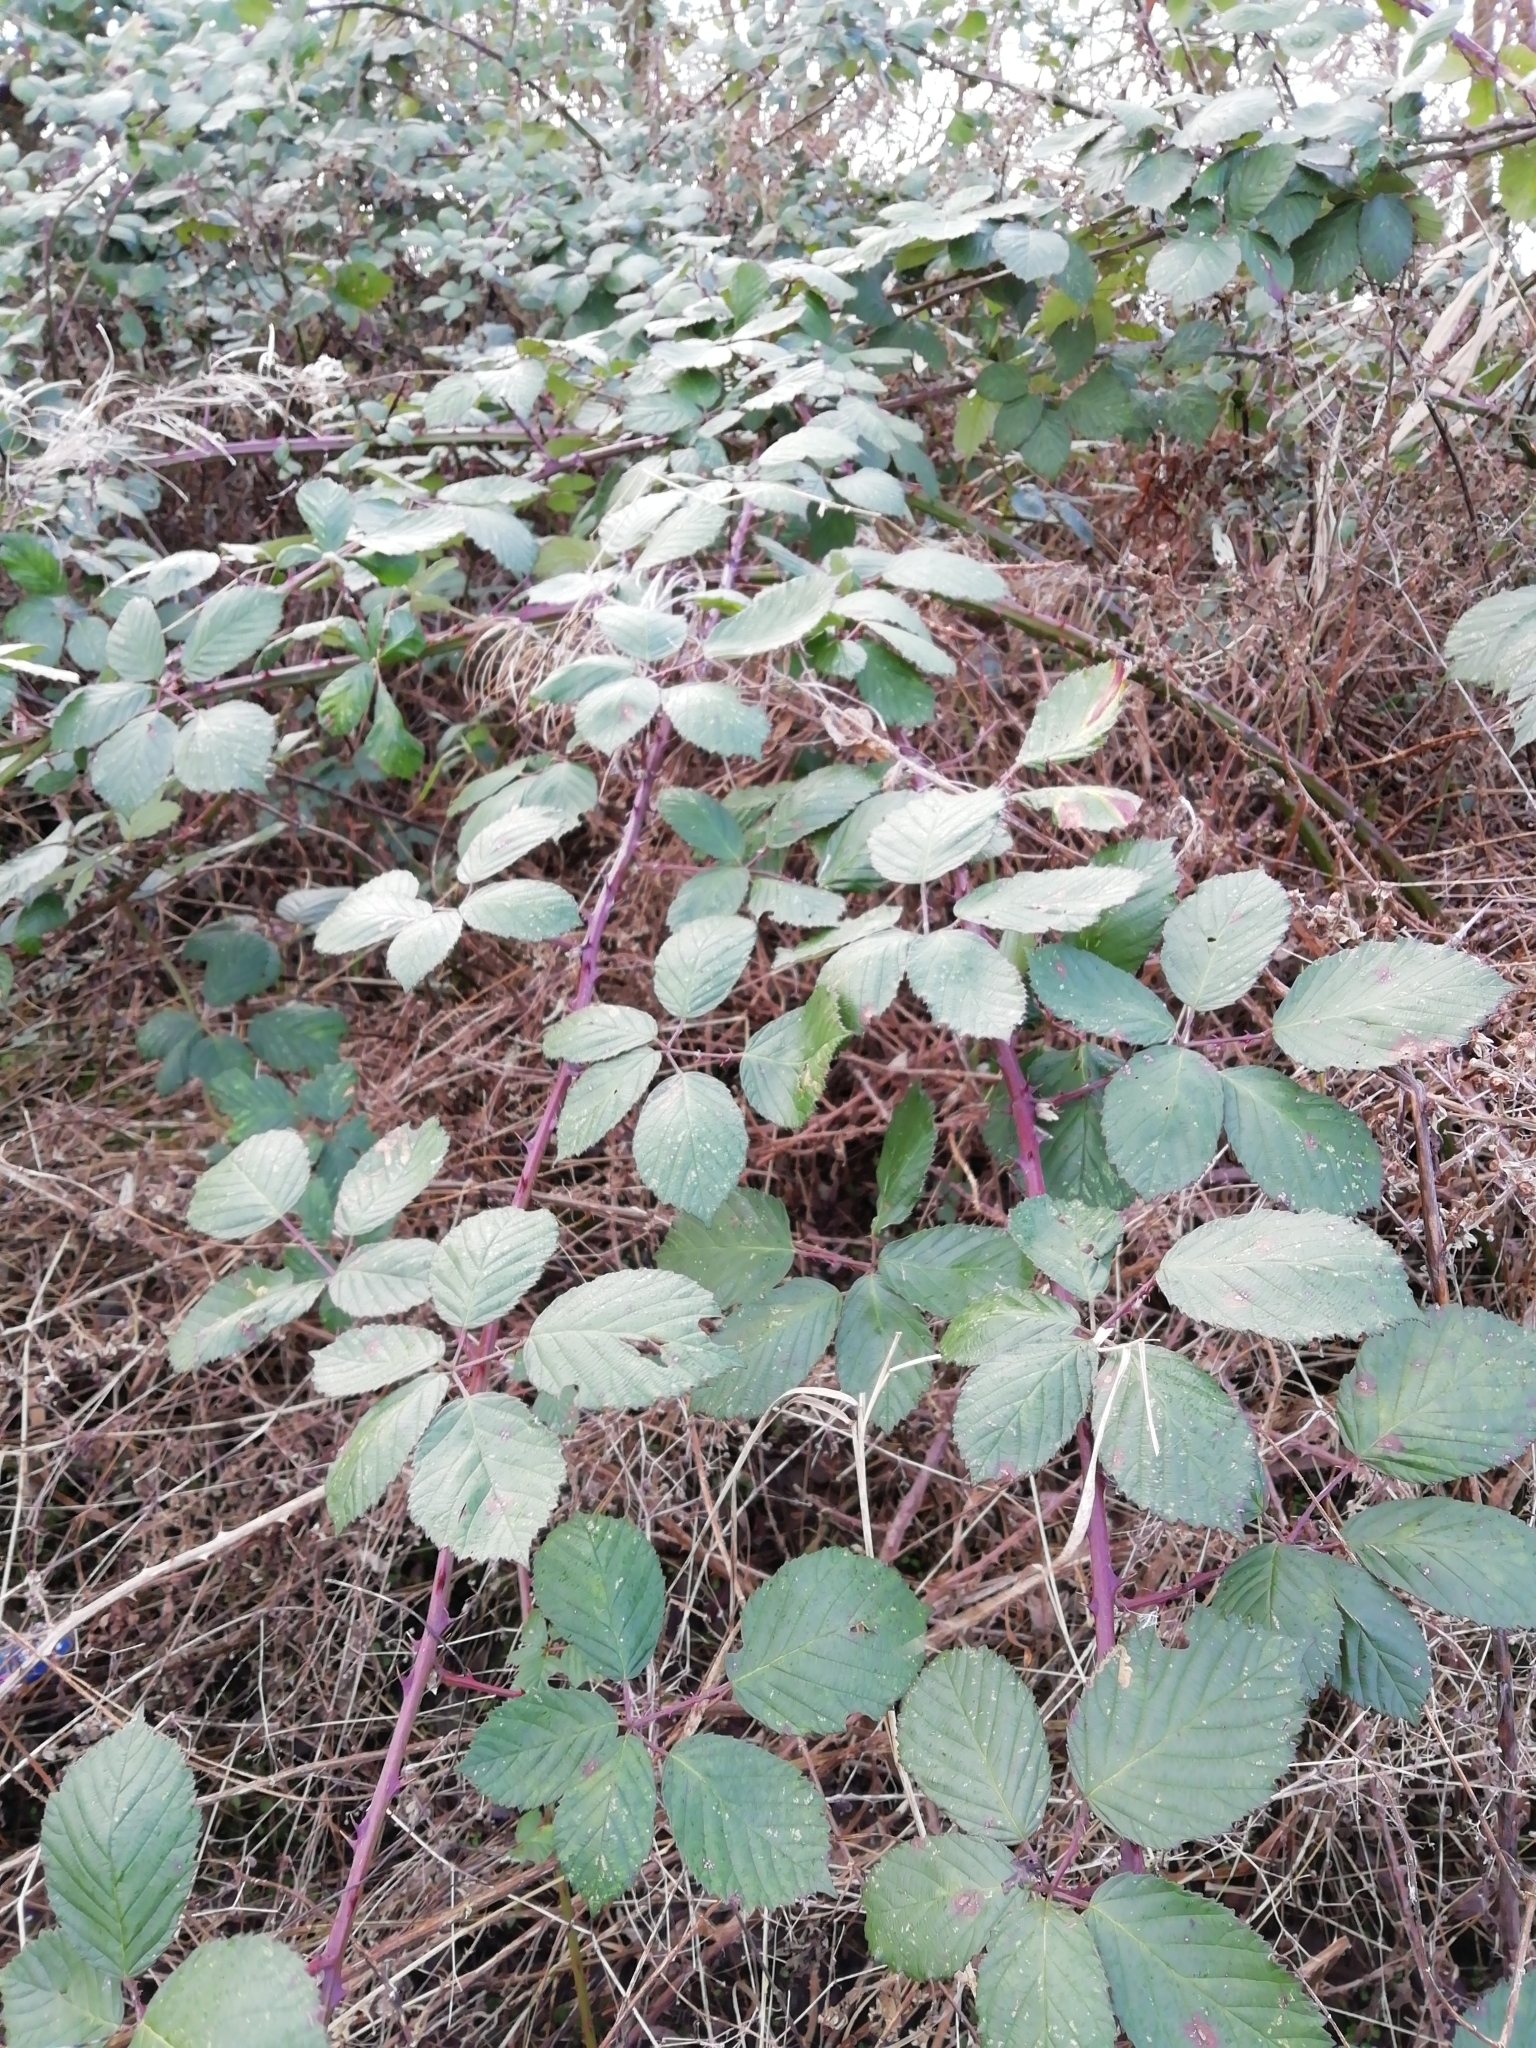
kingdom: Plantae
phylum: Tracheophyta
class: Magnoliopsida
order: Rosales
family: Rosaceae
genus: Rubus
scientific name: Rubus armeniacus
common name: Himalayan blackberry
